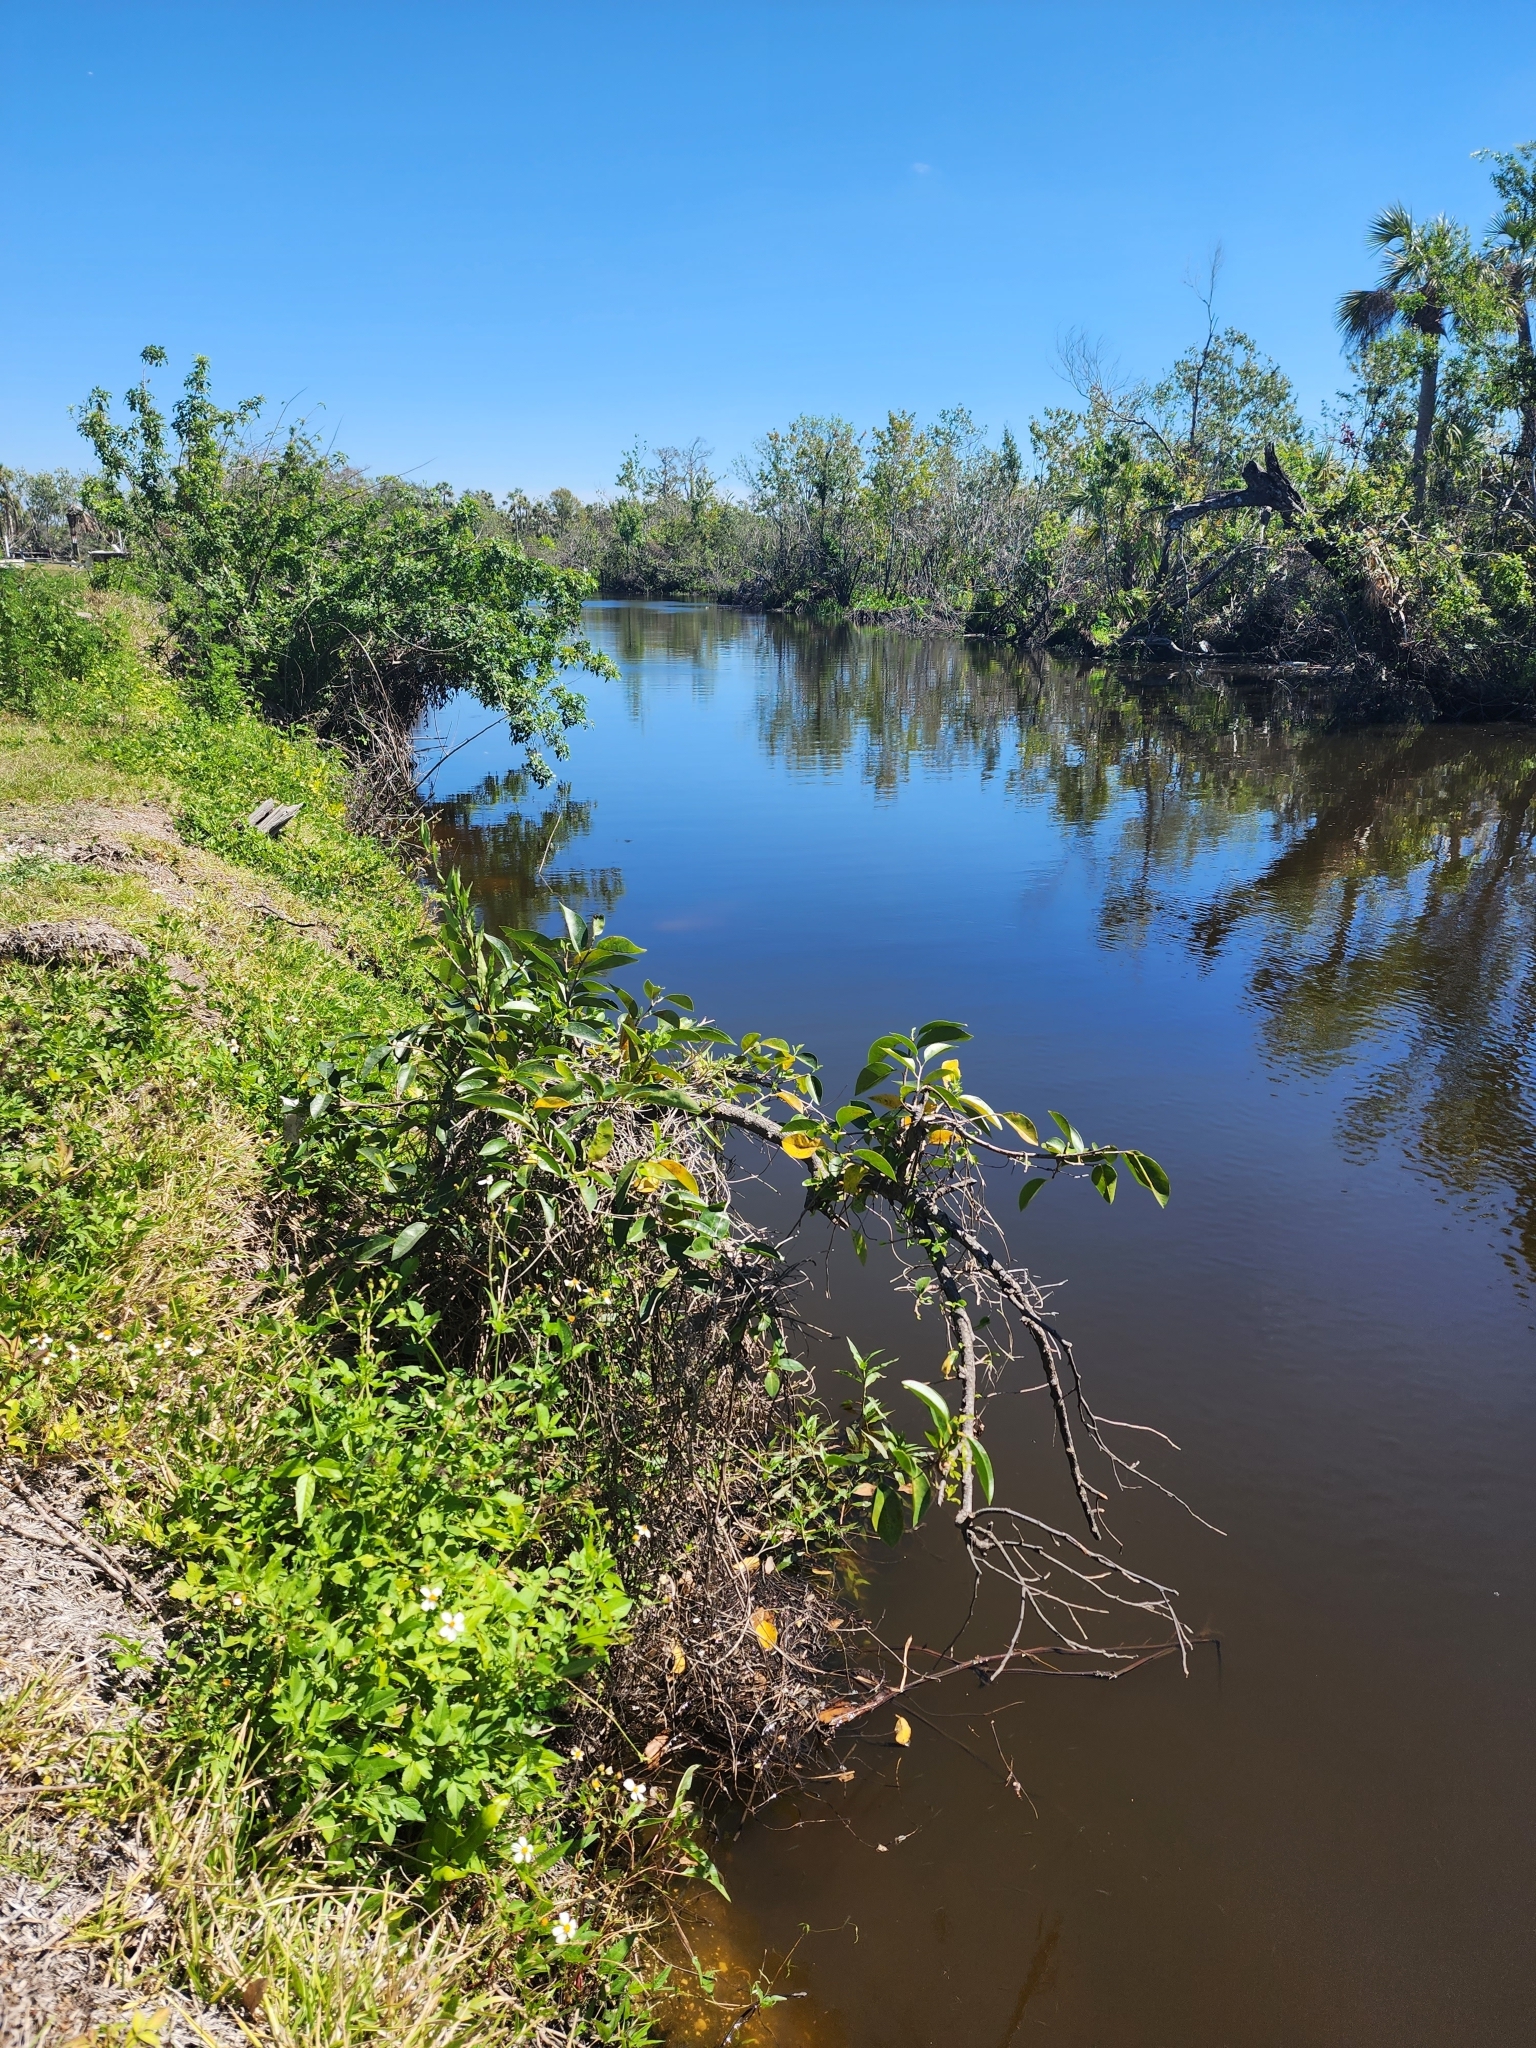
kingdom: Plantae
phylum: Tracheophyta
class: Magnoliopsida
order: Magnoliales
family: Annonaceae
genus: Annona
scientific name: Annona glabra
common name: Monkey apple
